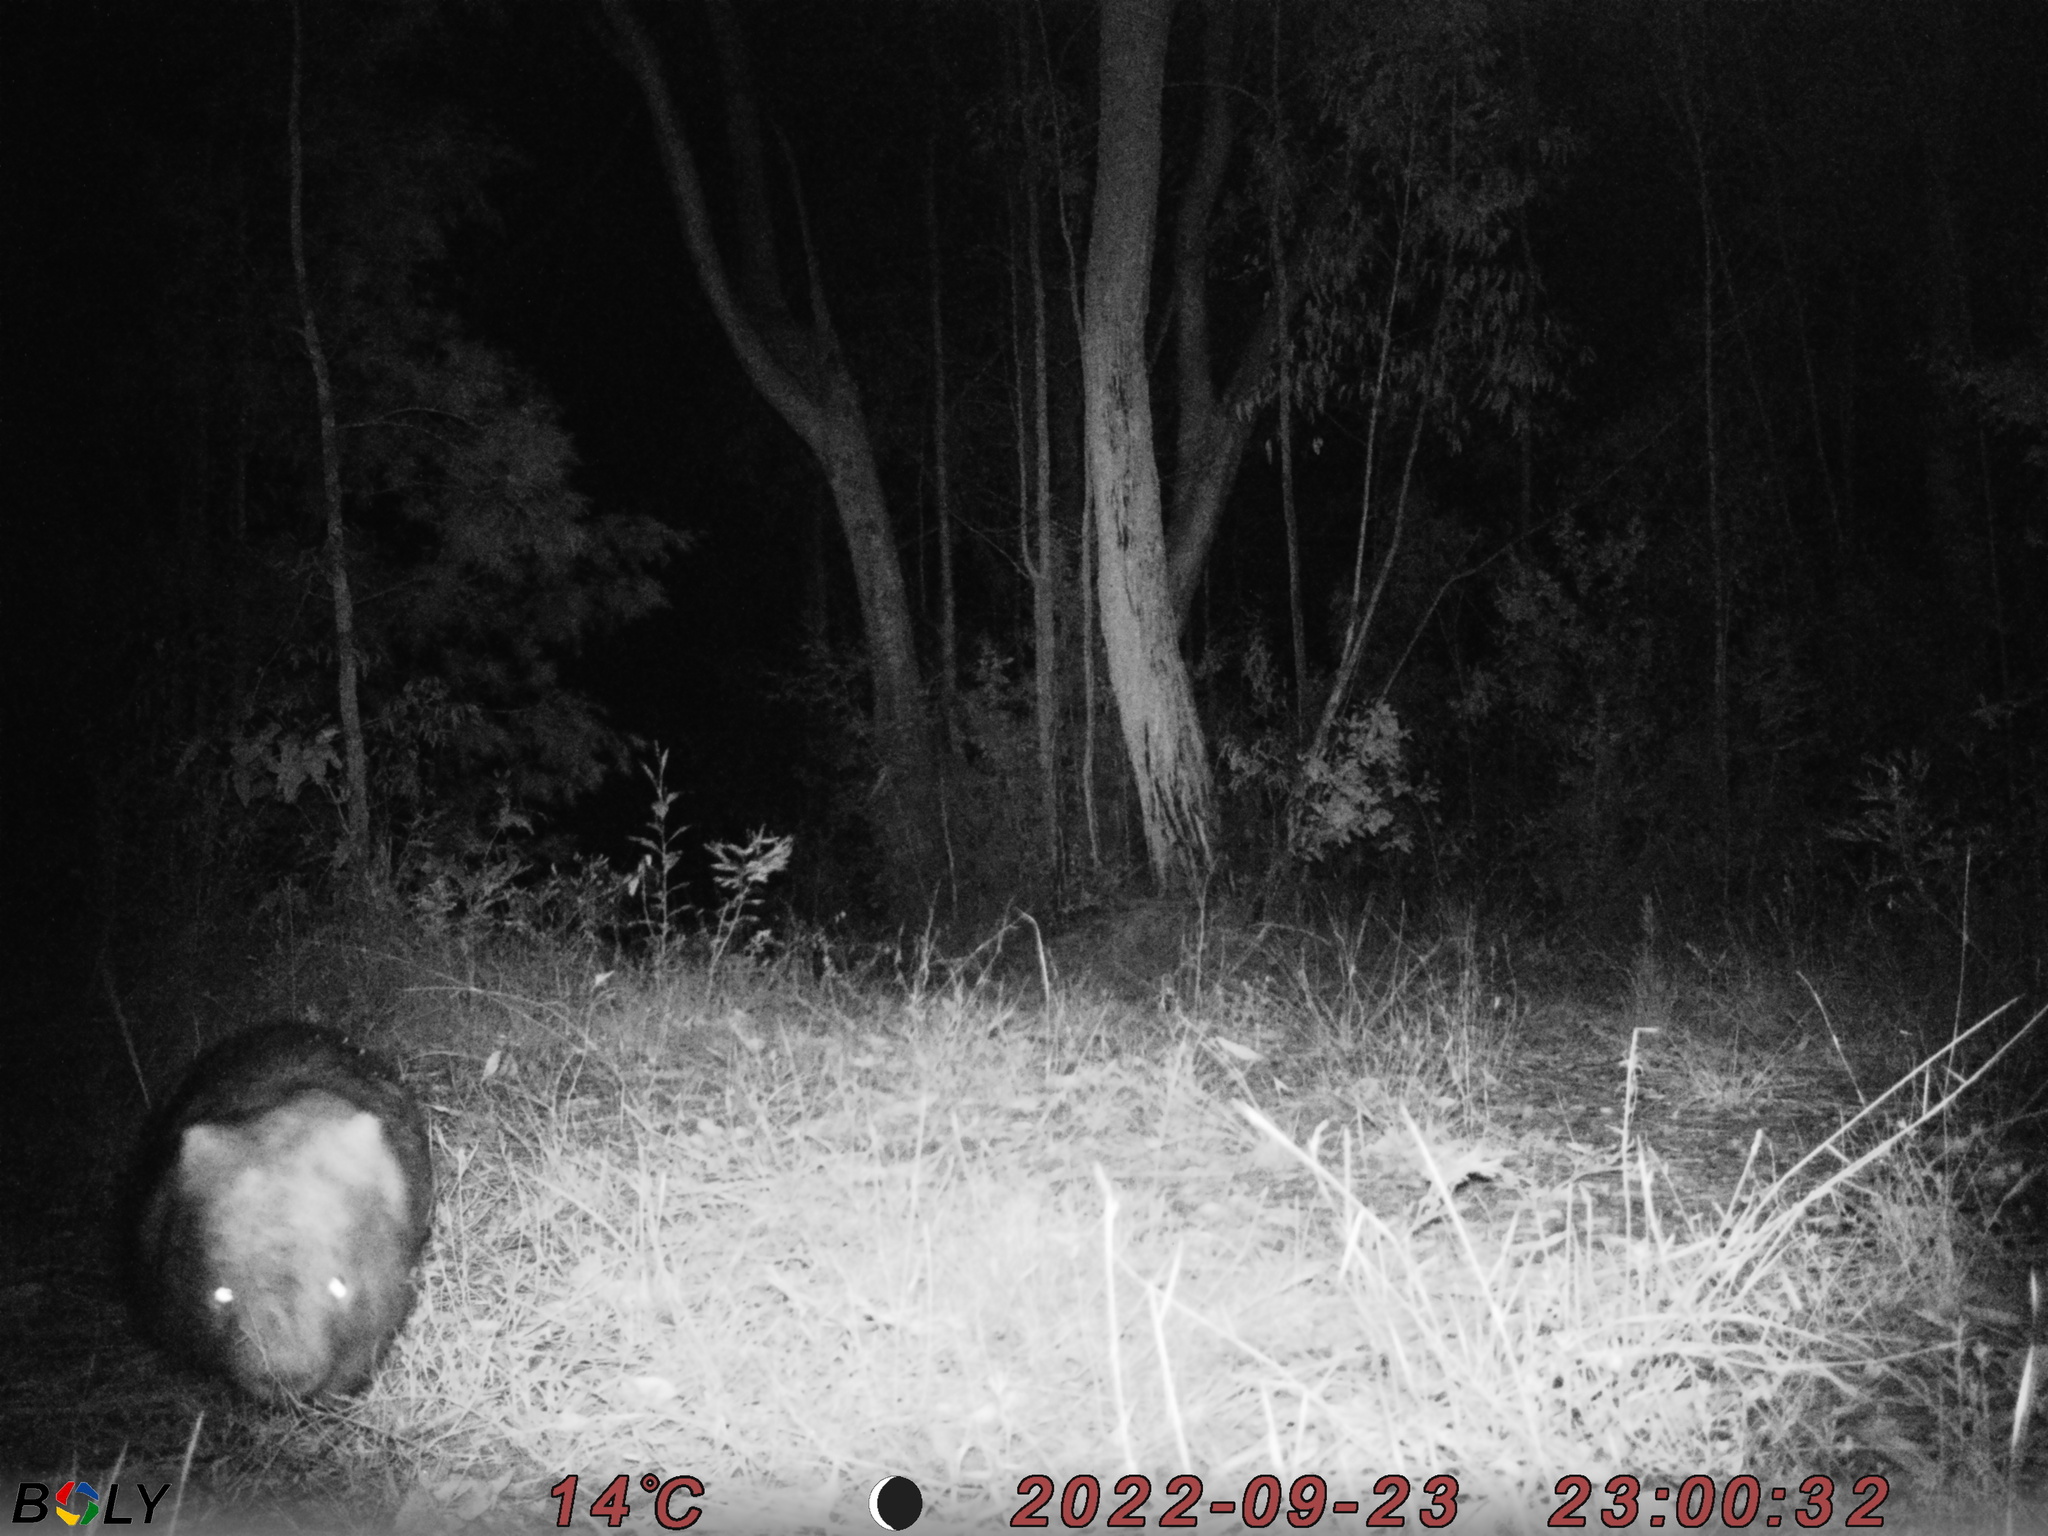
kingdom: Animalia
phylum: Chordata
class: Mammalia
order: Diprotodontia
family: Vombatidae
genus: Vombatus
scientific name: Vombatus ursinus
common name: Common wombat
